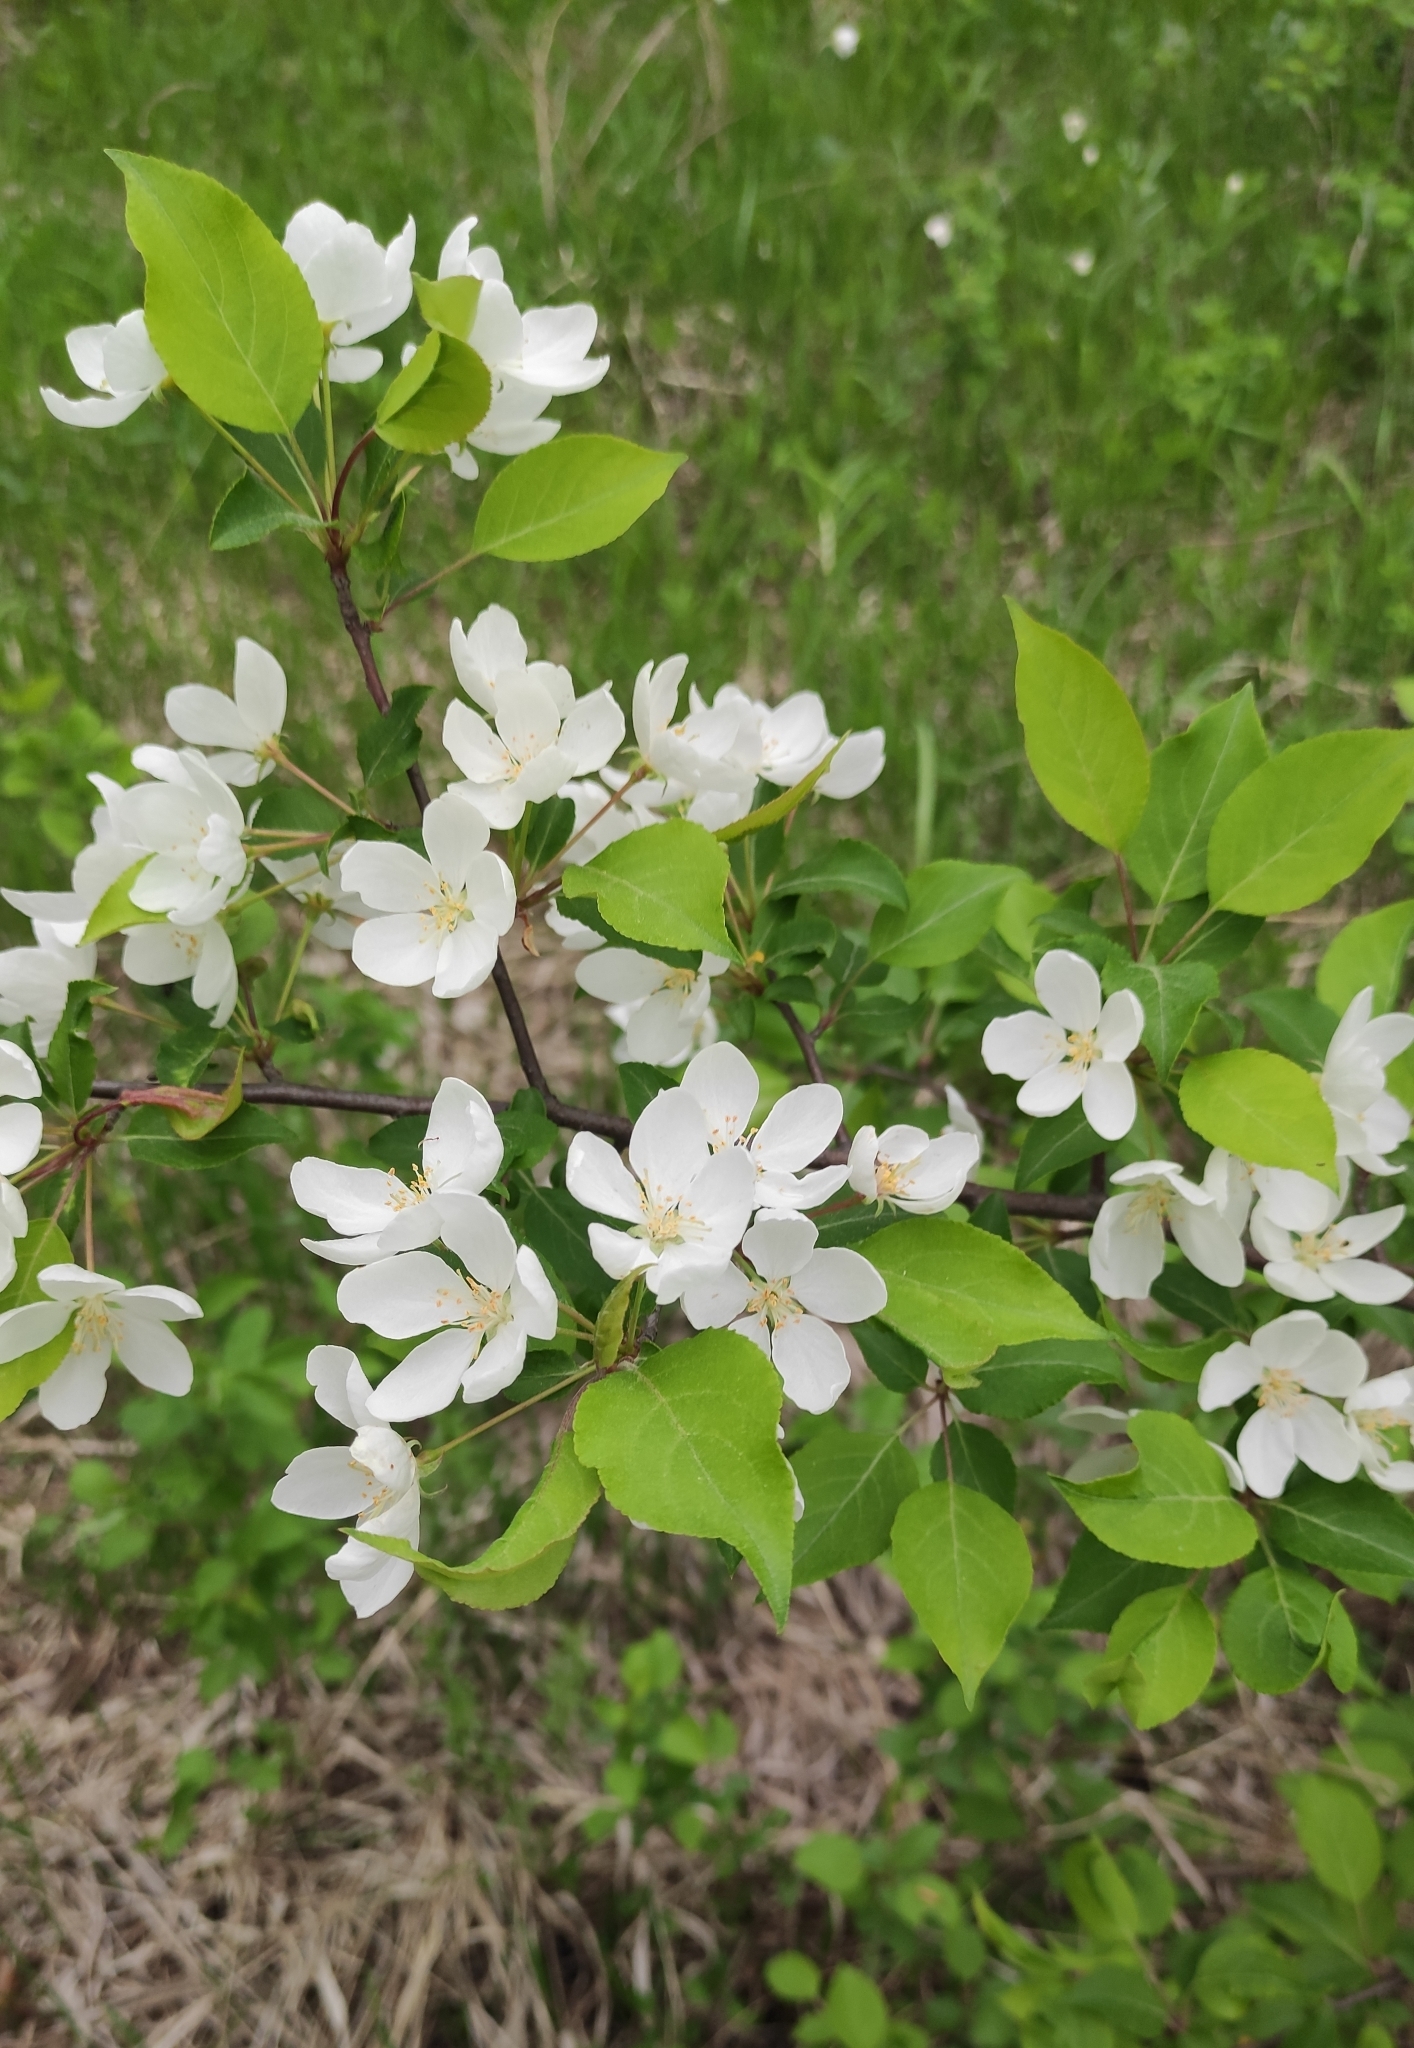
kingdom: Plantae
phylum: Tracheophyta
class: Magnoliopsida
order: Rosales
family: Rosaceae
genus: Malus
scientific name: Malus baccata
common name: Siberian crab
